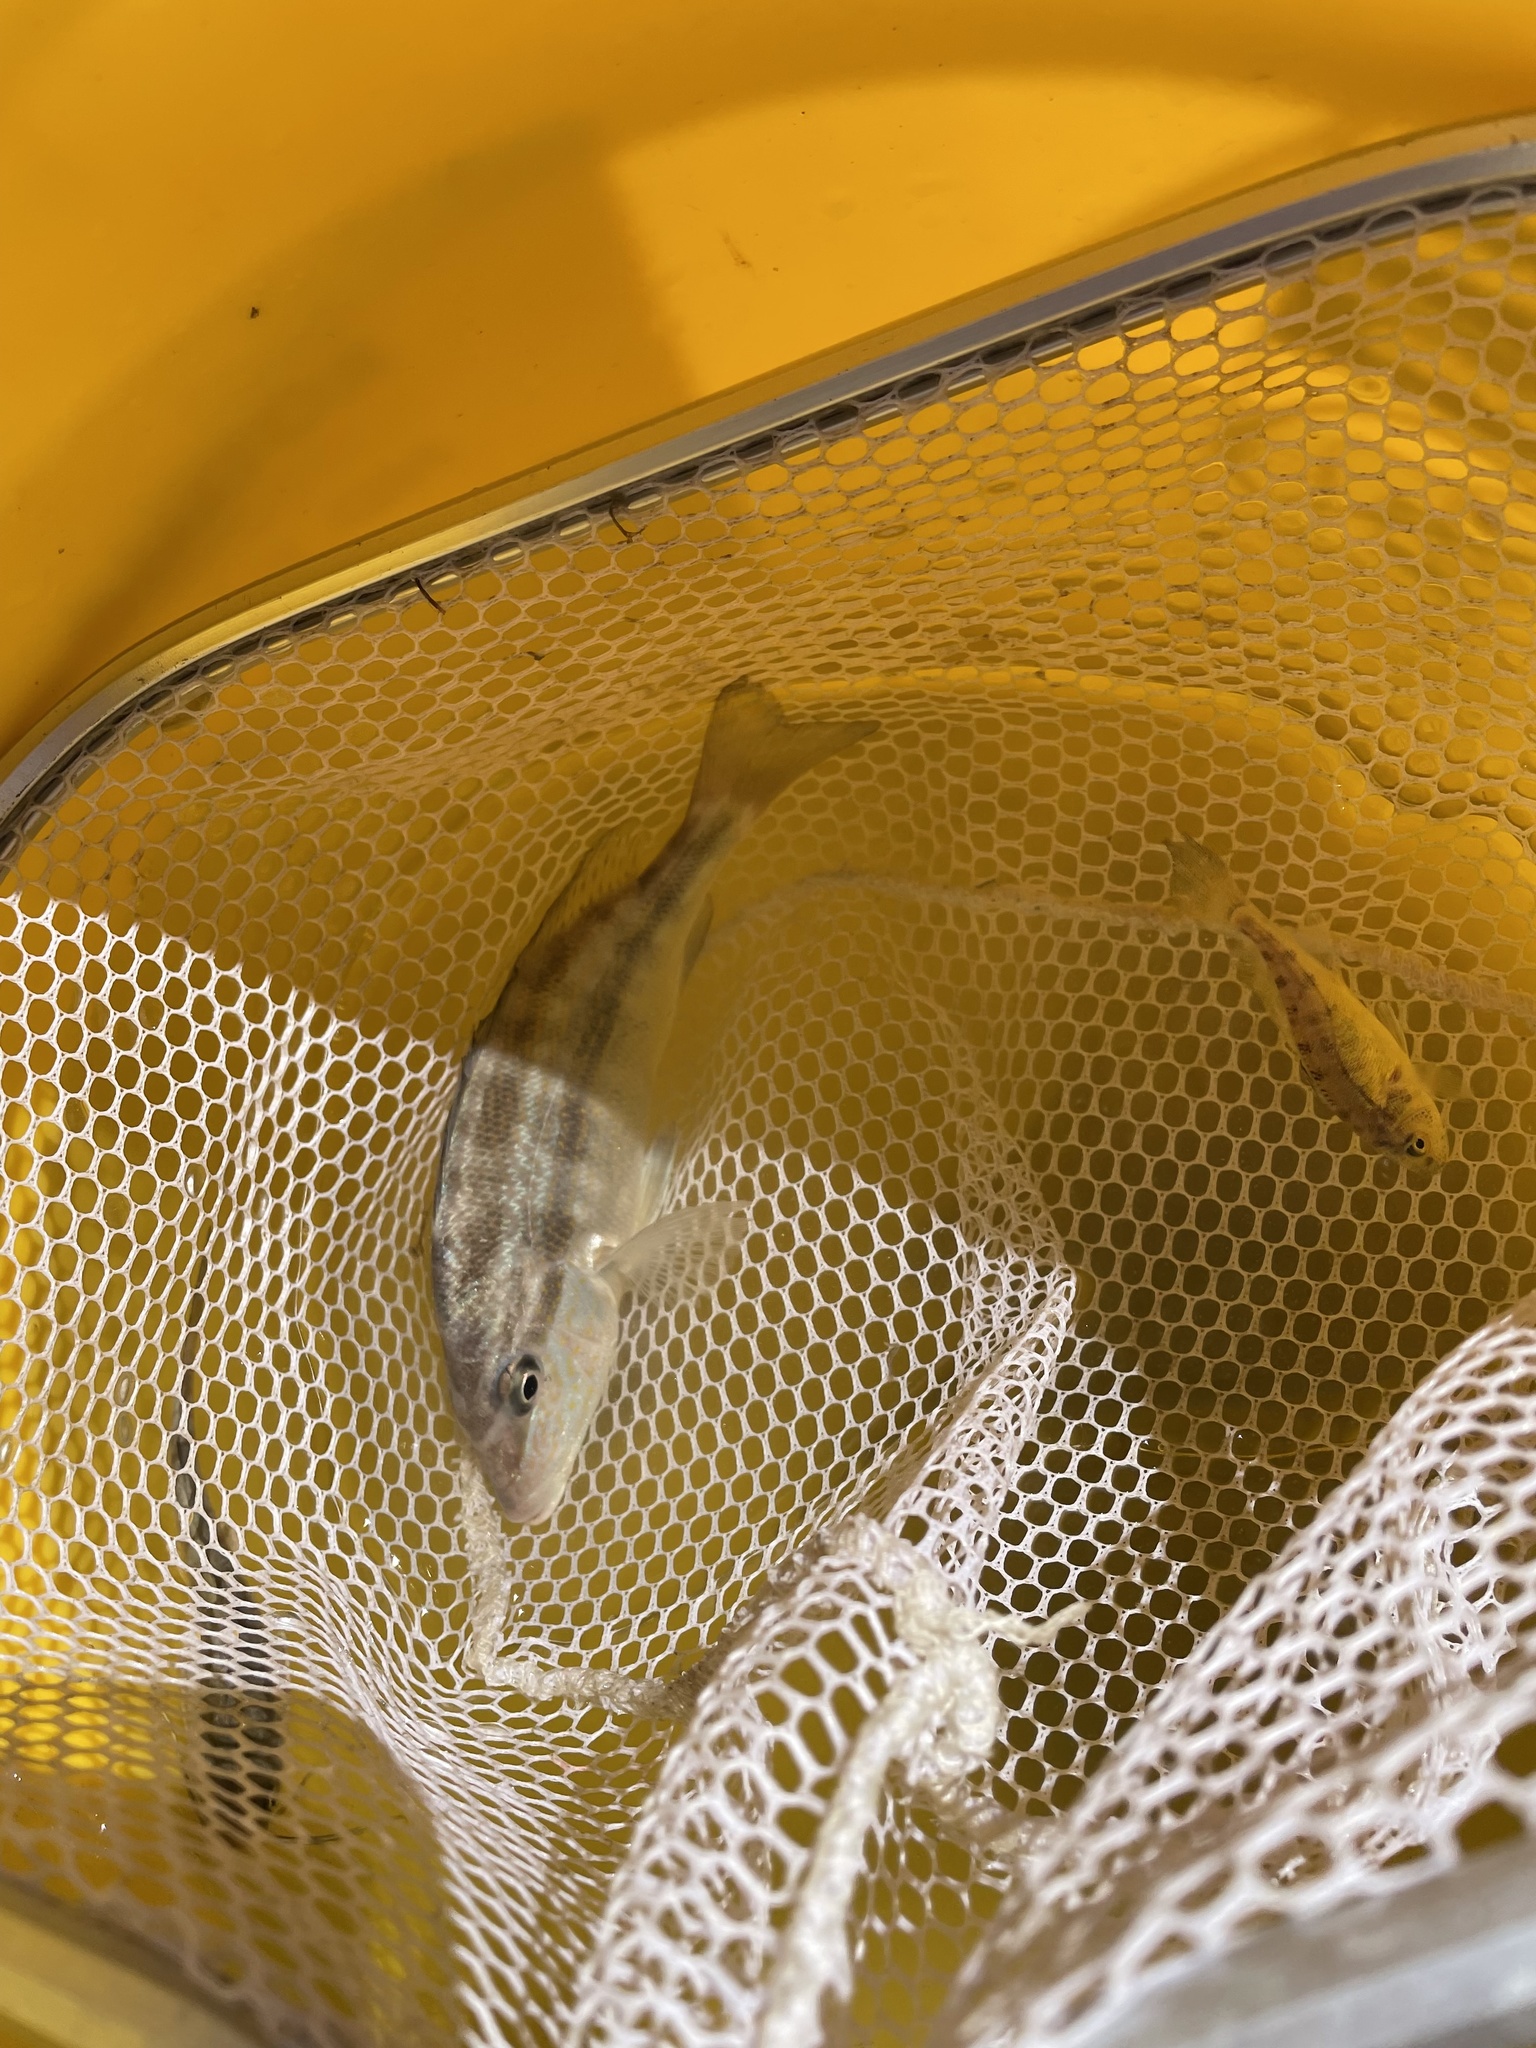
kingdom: Animalia
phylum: Chordata
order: Perciformes
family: Haemulidae
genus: Orthopristis
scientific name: Orthopristis chrysoptera
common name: Pigfish
